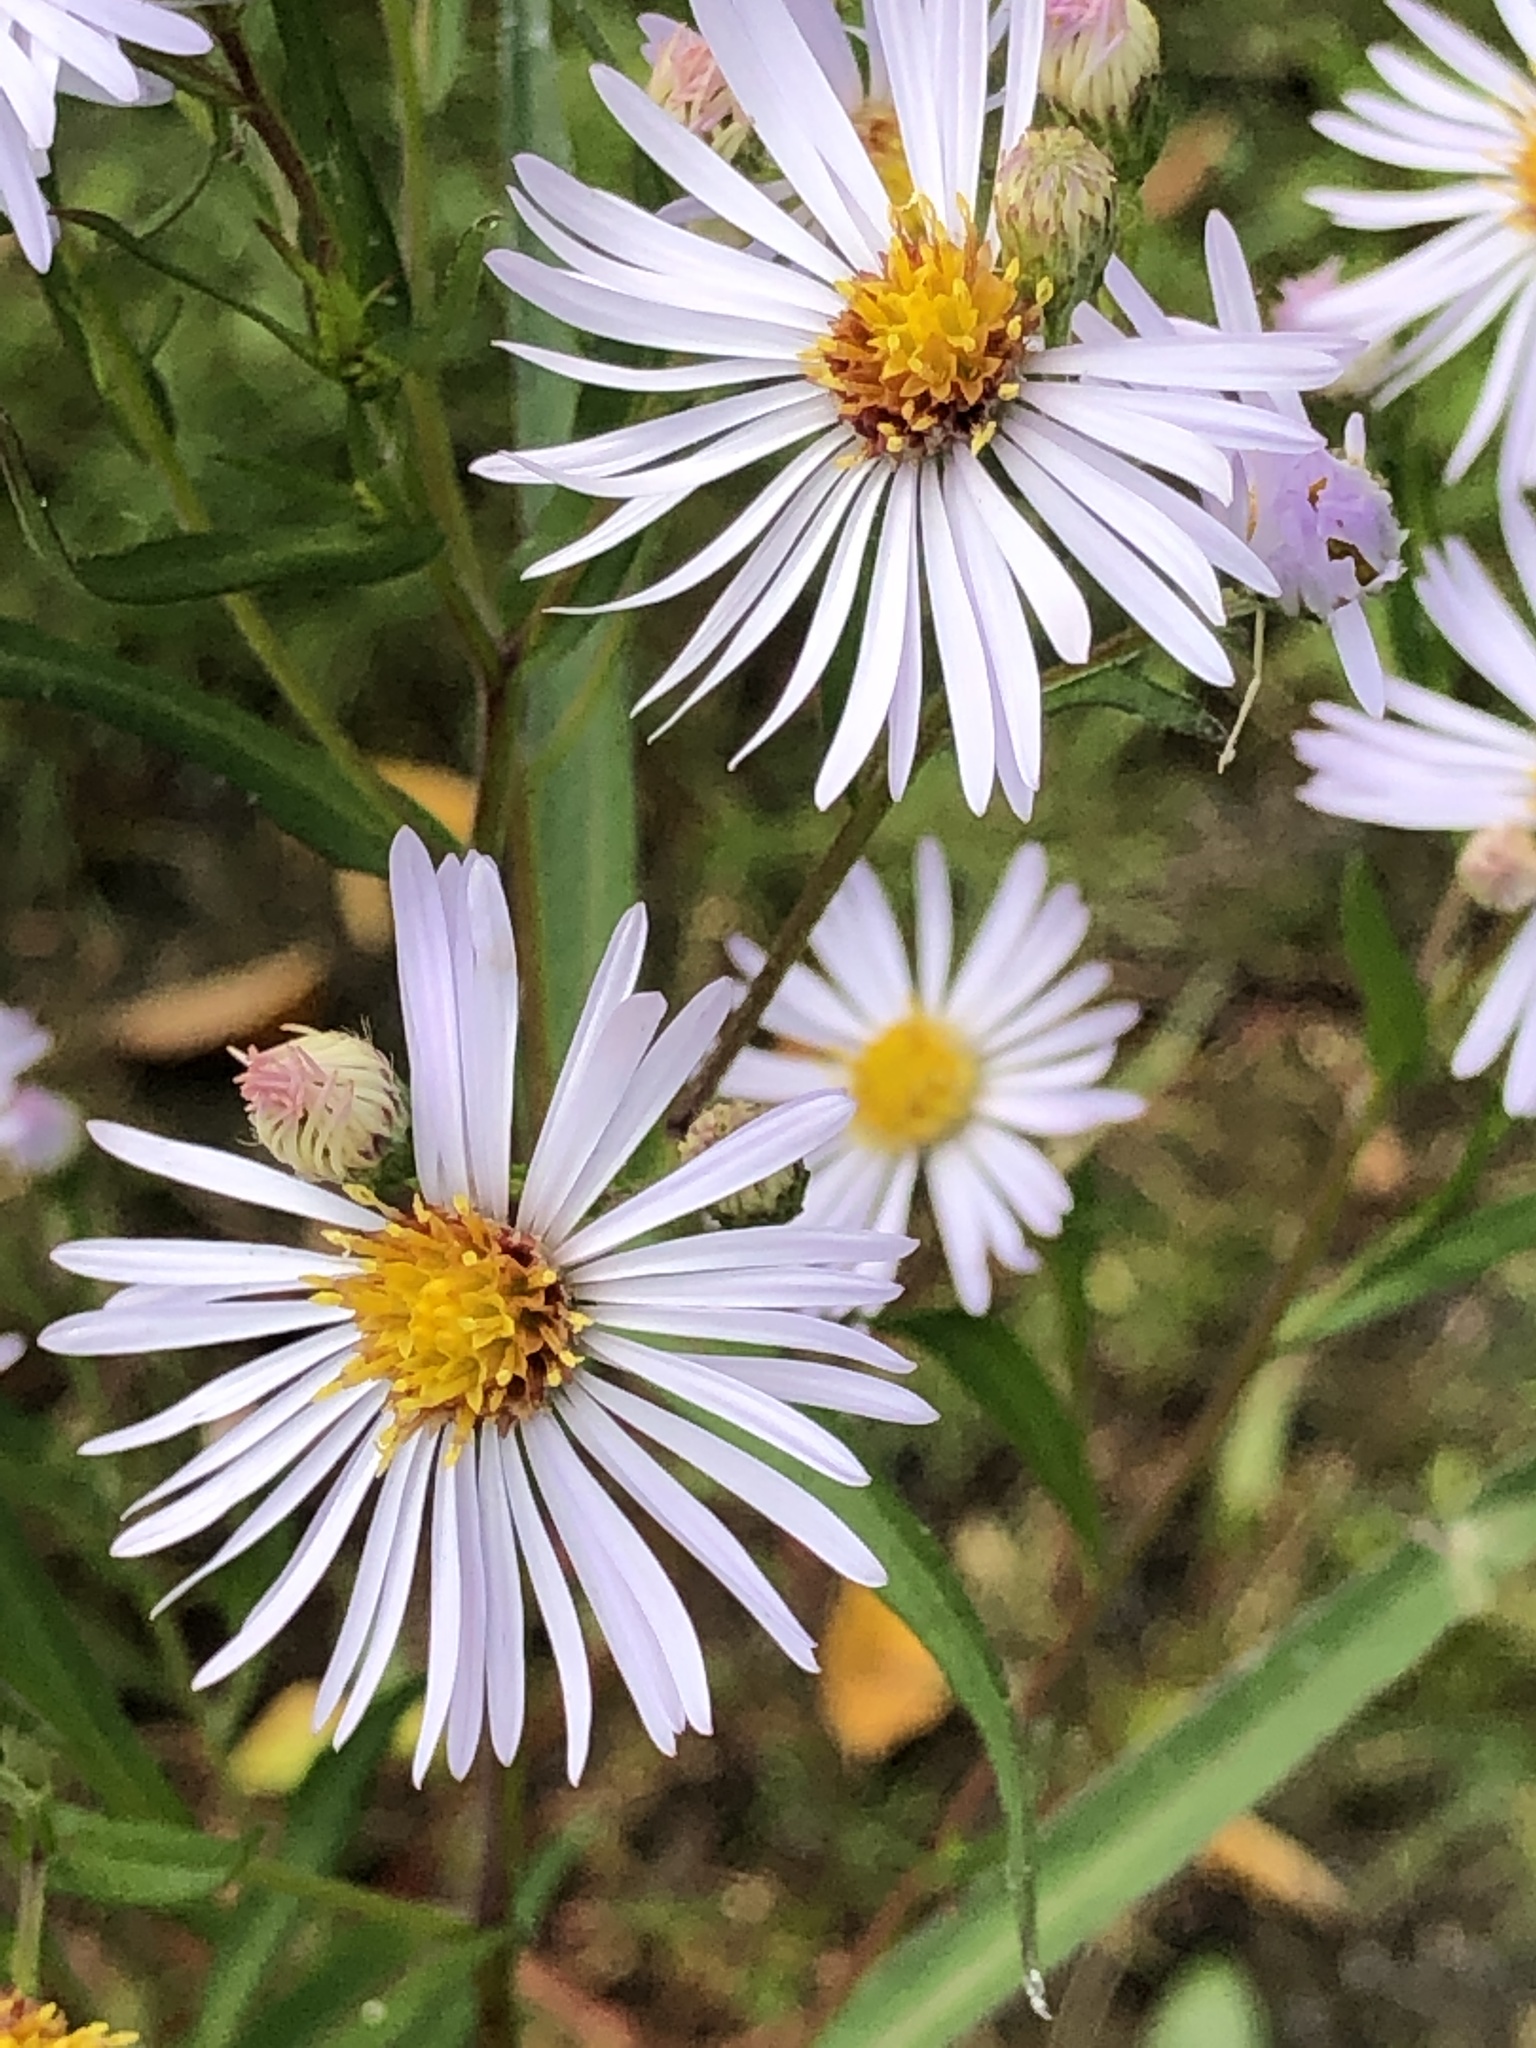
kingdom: Plantae
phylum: Tracheophyta
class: Magnoliopsida
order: Asterales
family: Asteraceae
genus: Symphyotrichum
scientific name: Symphyotrichum lanceolatum
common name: Panicled aster
